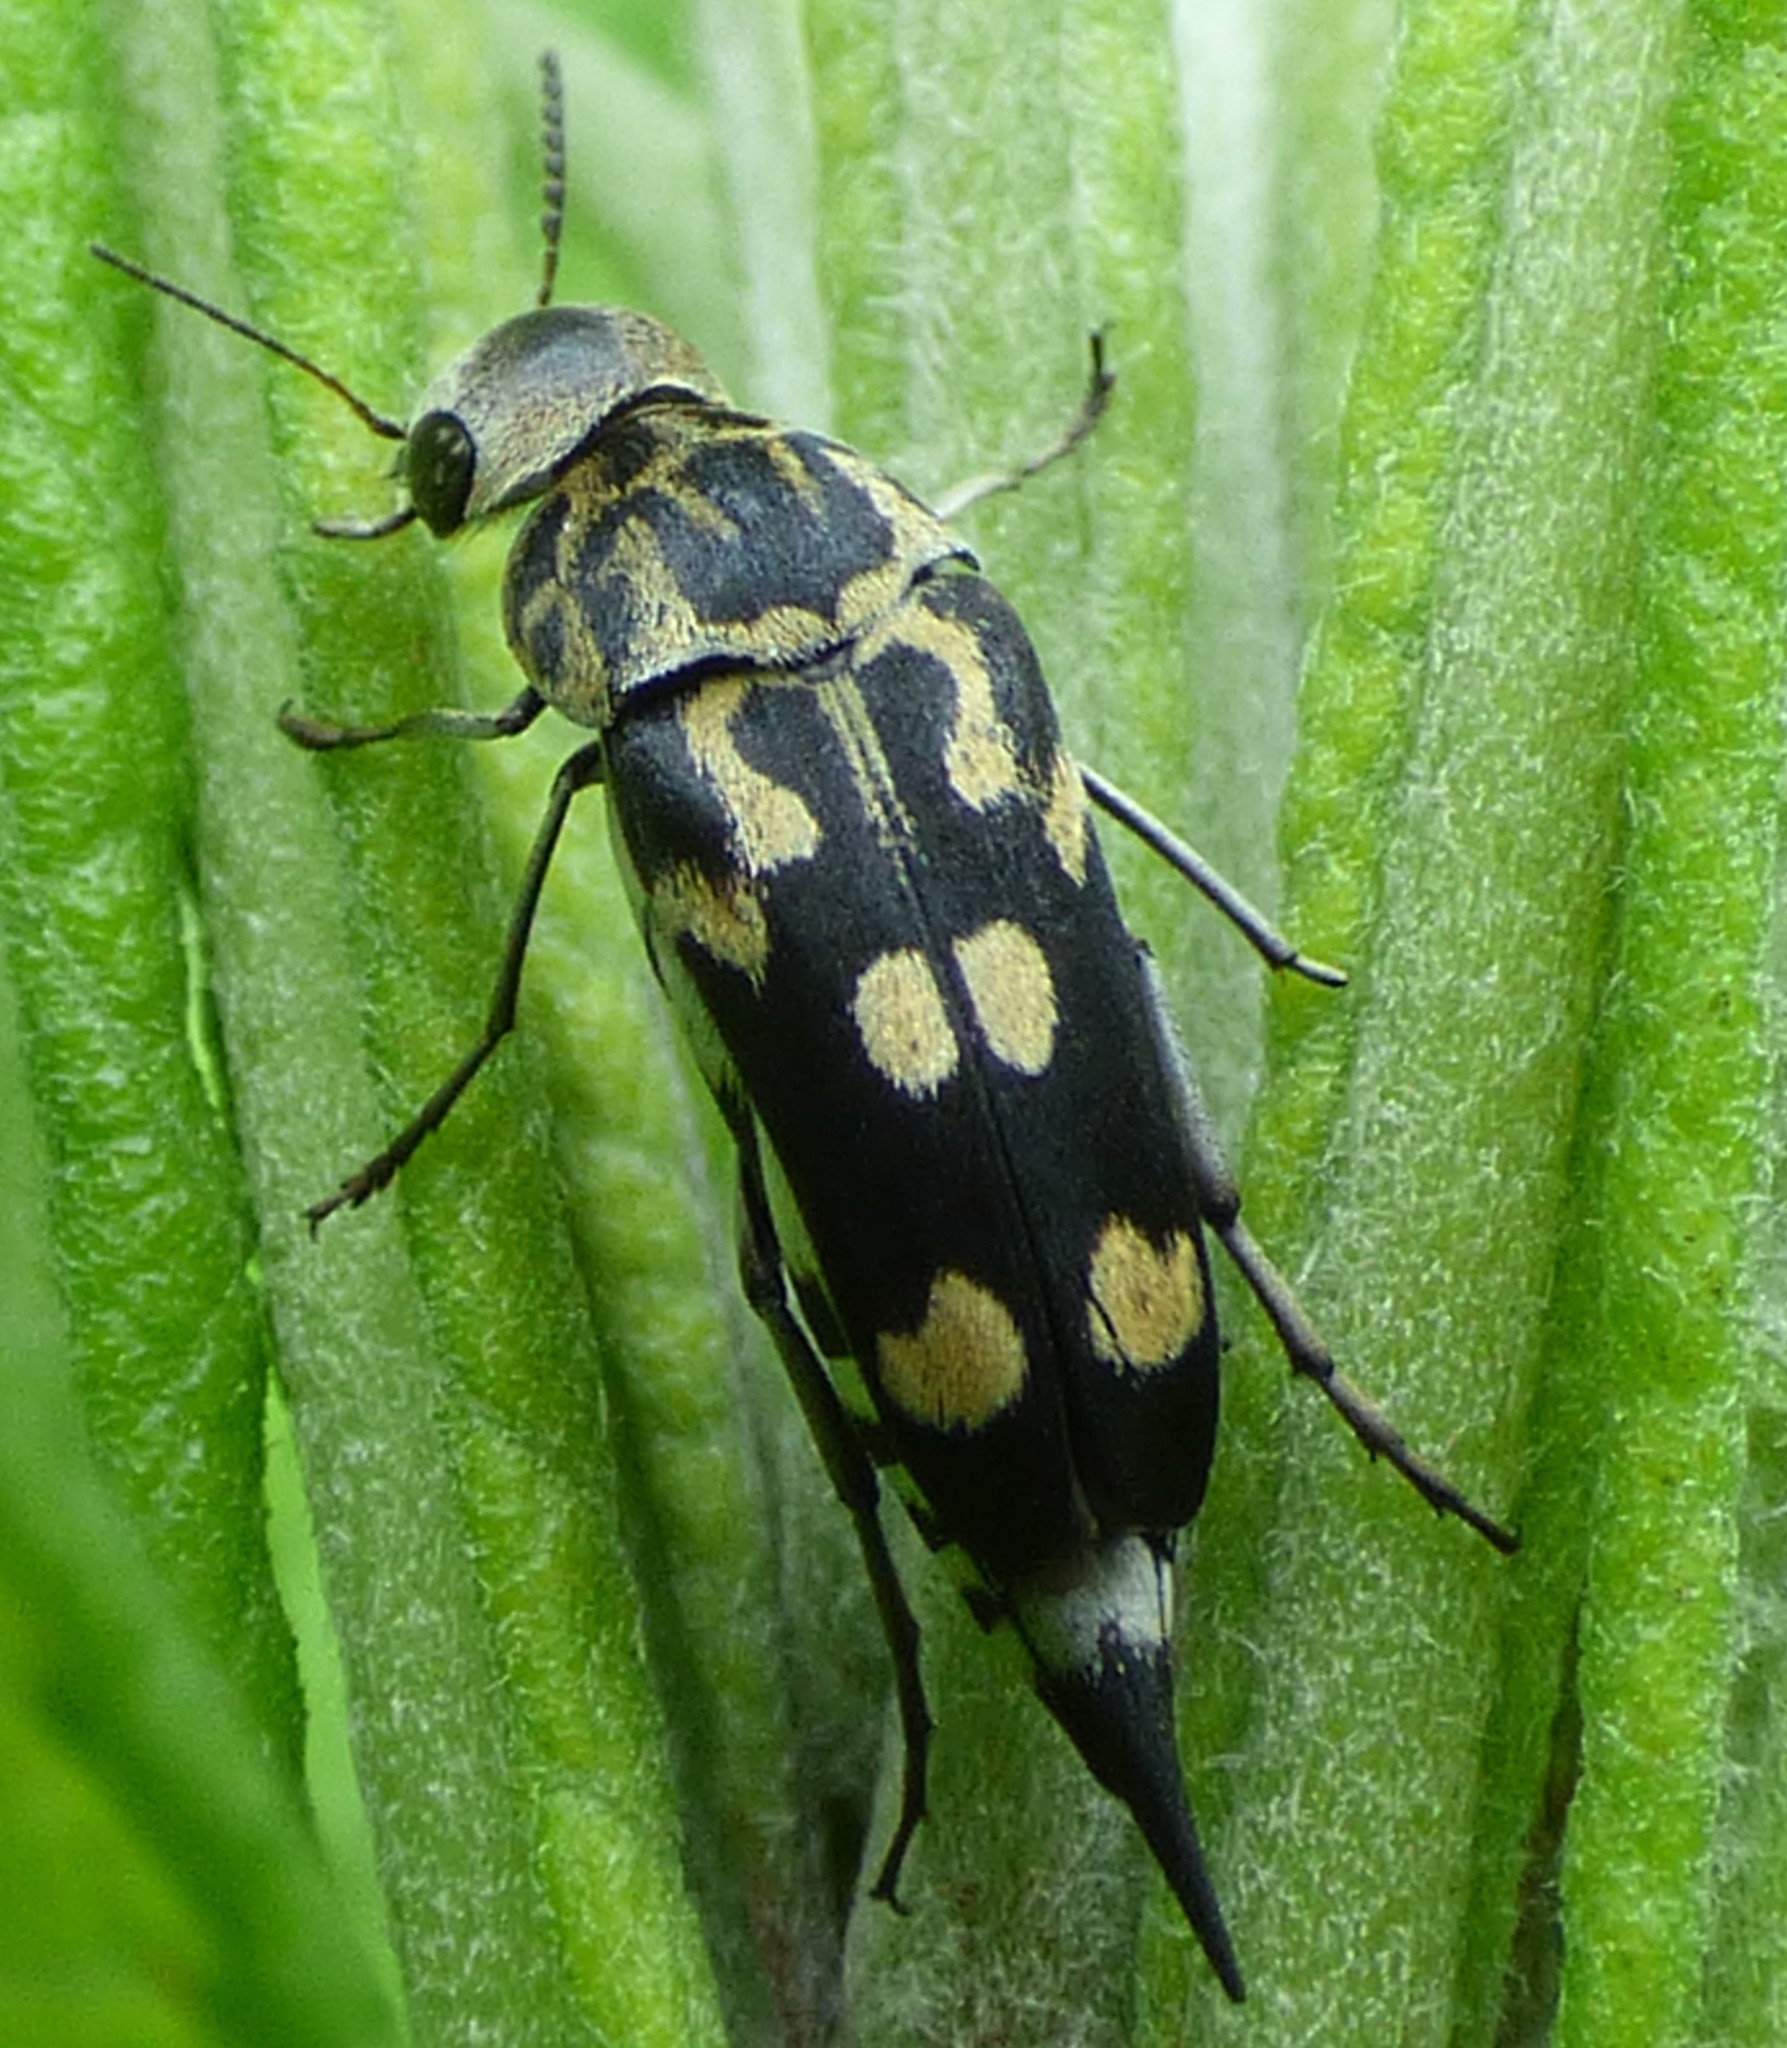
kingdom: Animalia
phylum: Arthropoda
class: Insecta
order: Coleoptera
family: Mordellidae
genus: Hoshihananomia
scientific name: Hoshihananomia octopunctata
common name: Eight-spotted tumbling flower beetle
